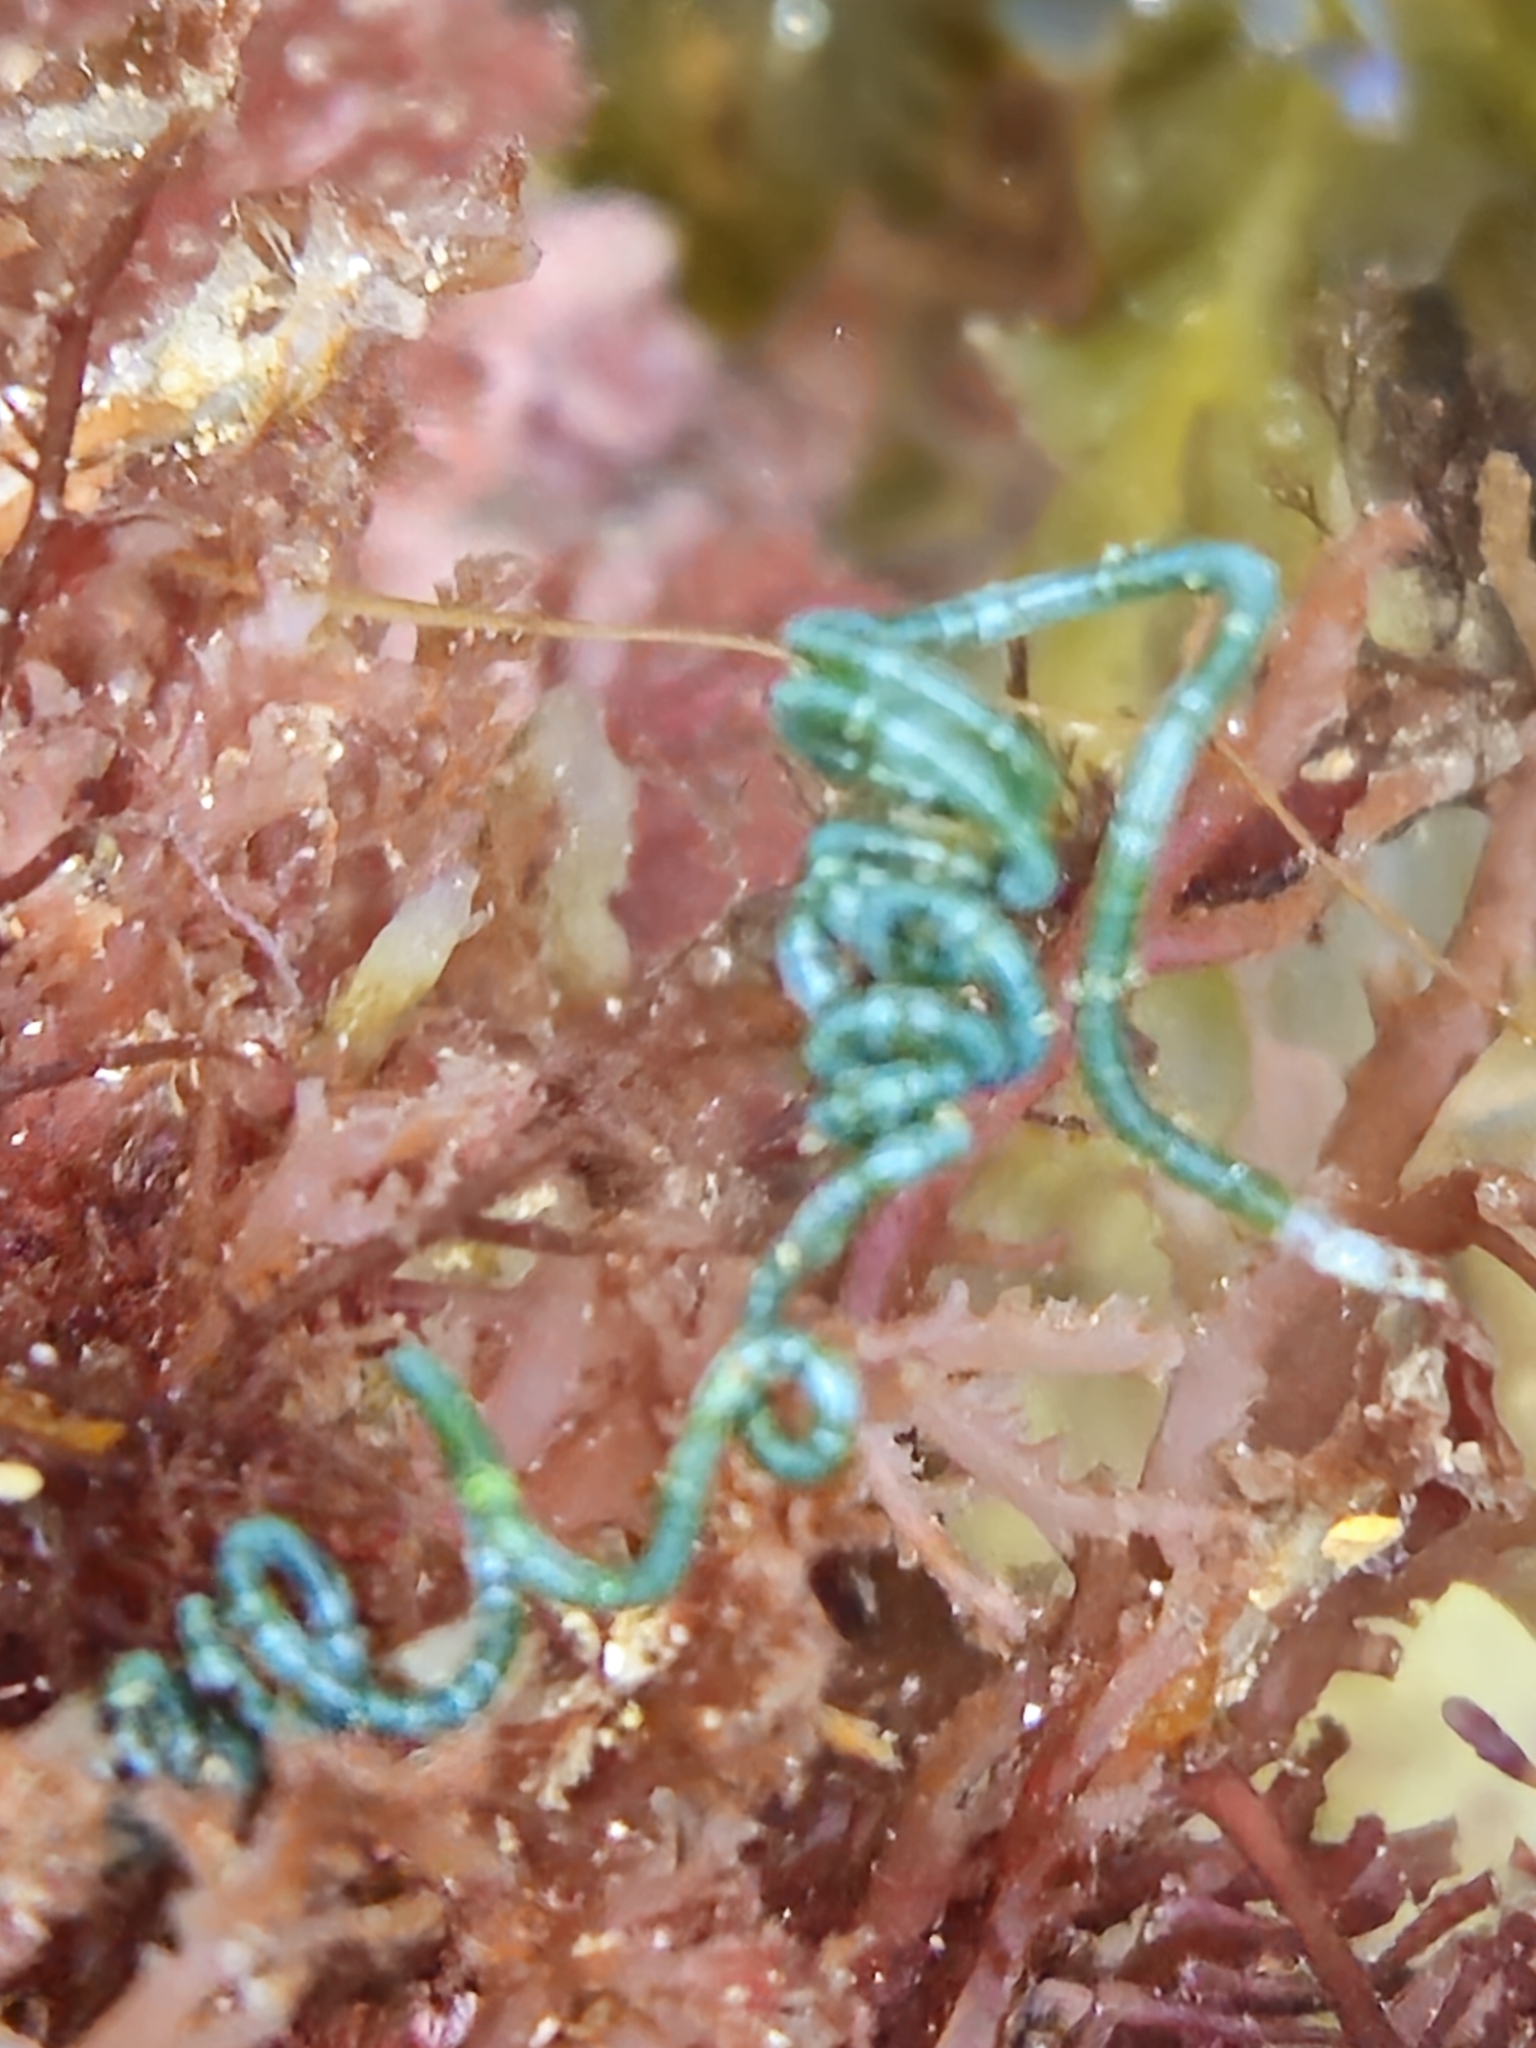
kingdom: Plantae
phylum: Chlorophyta
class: Ulvophyceae
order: Cladophorales
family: Cladophoraceae
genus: Chaetomorpha
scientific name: Chaetomorpha spiralis
